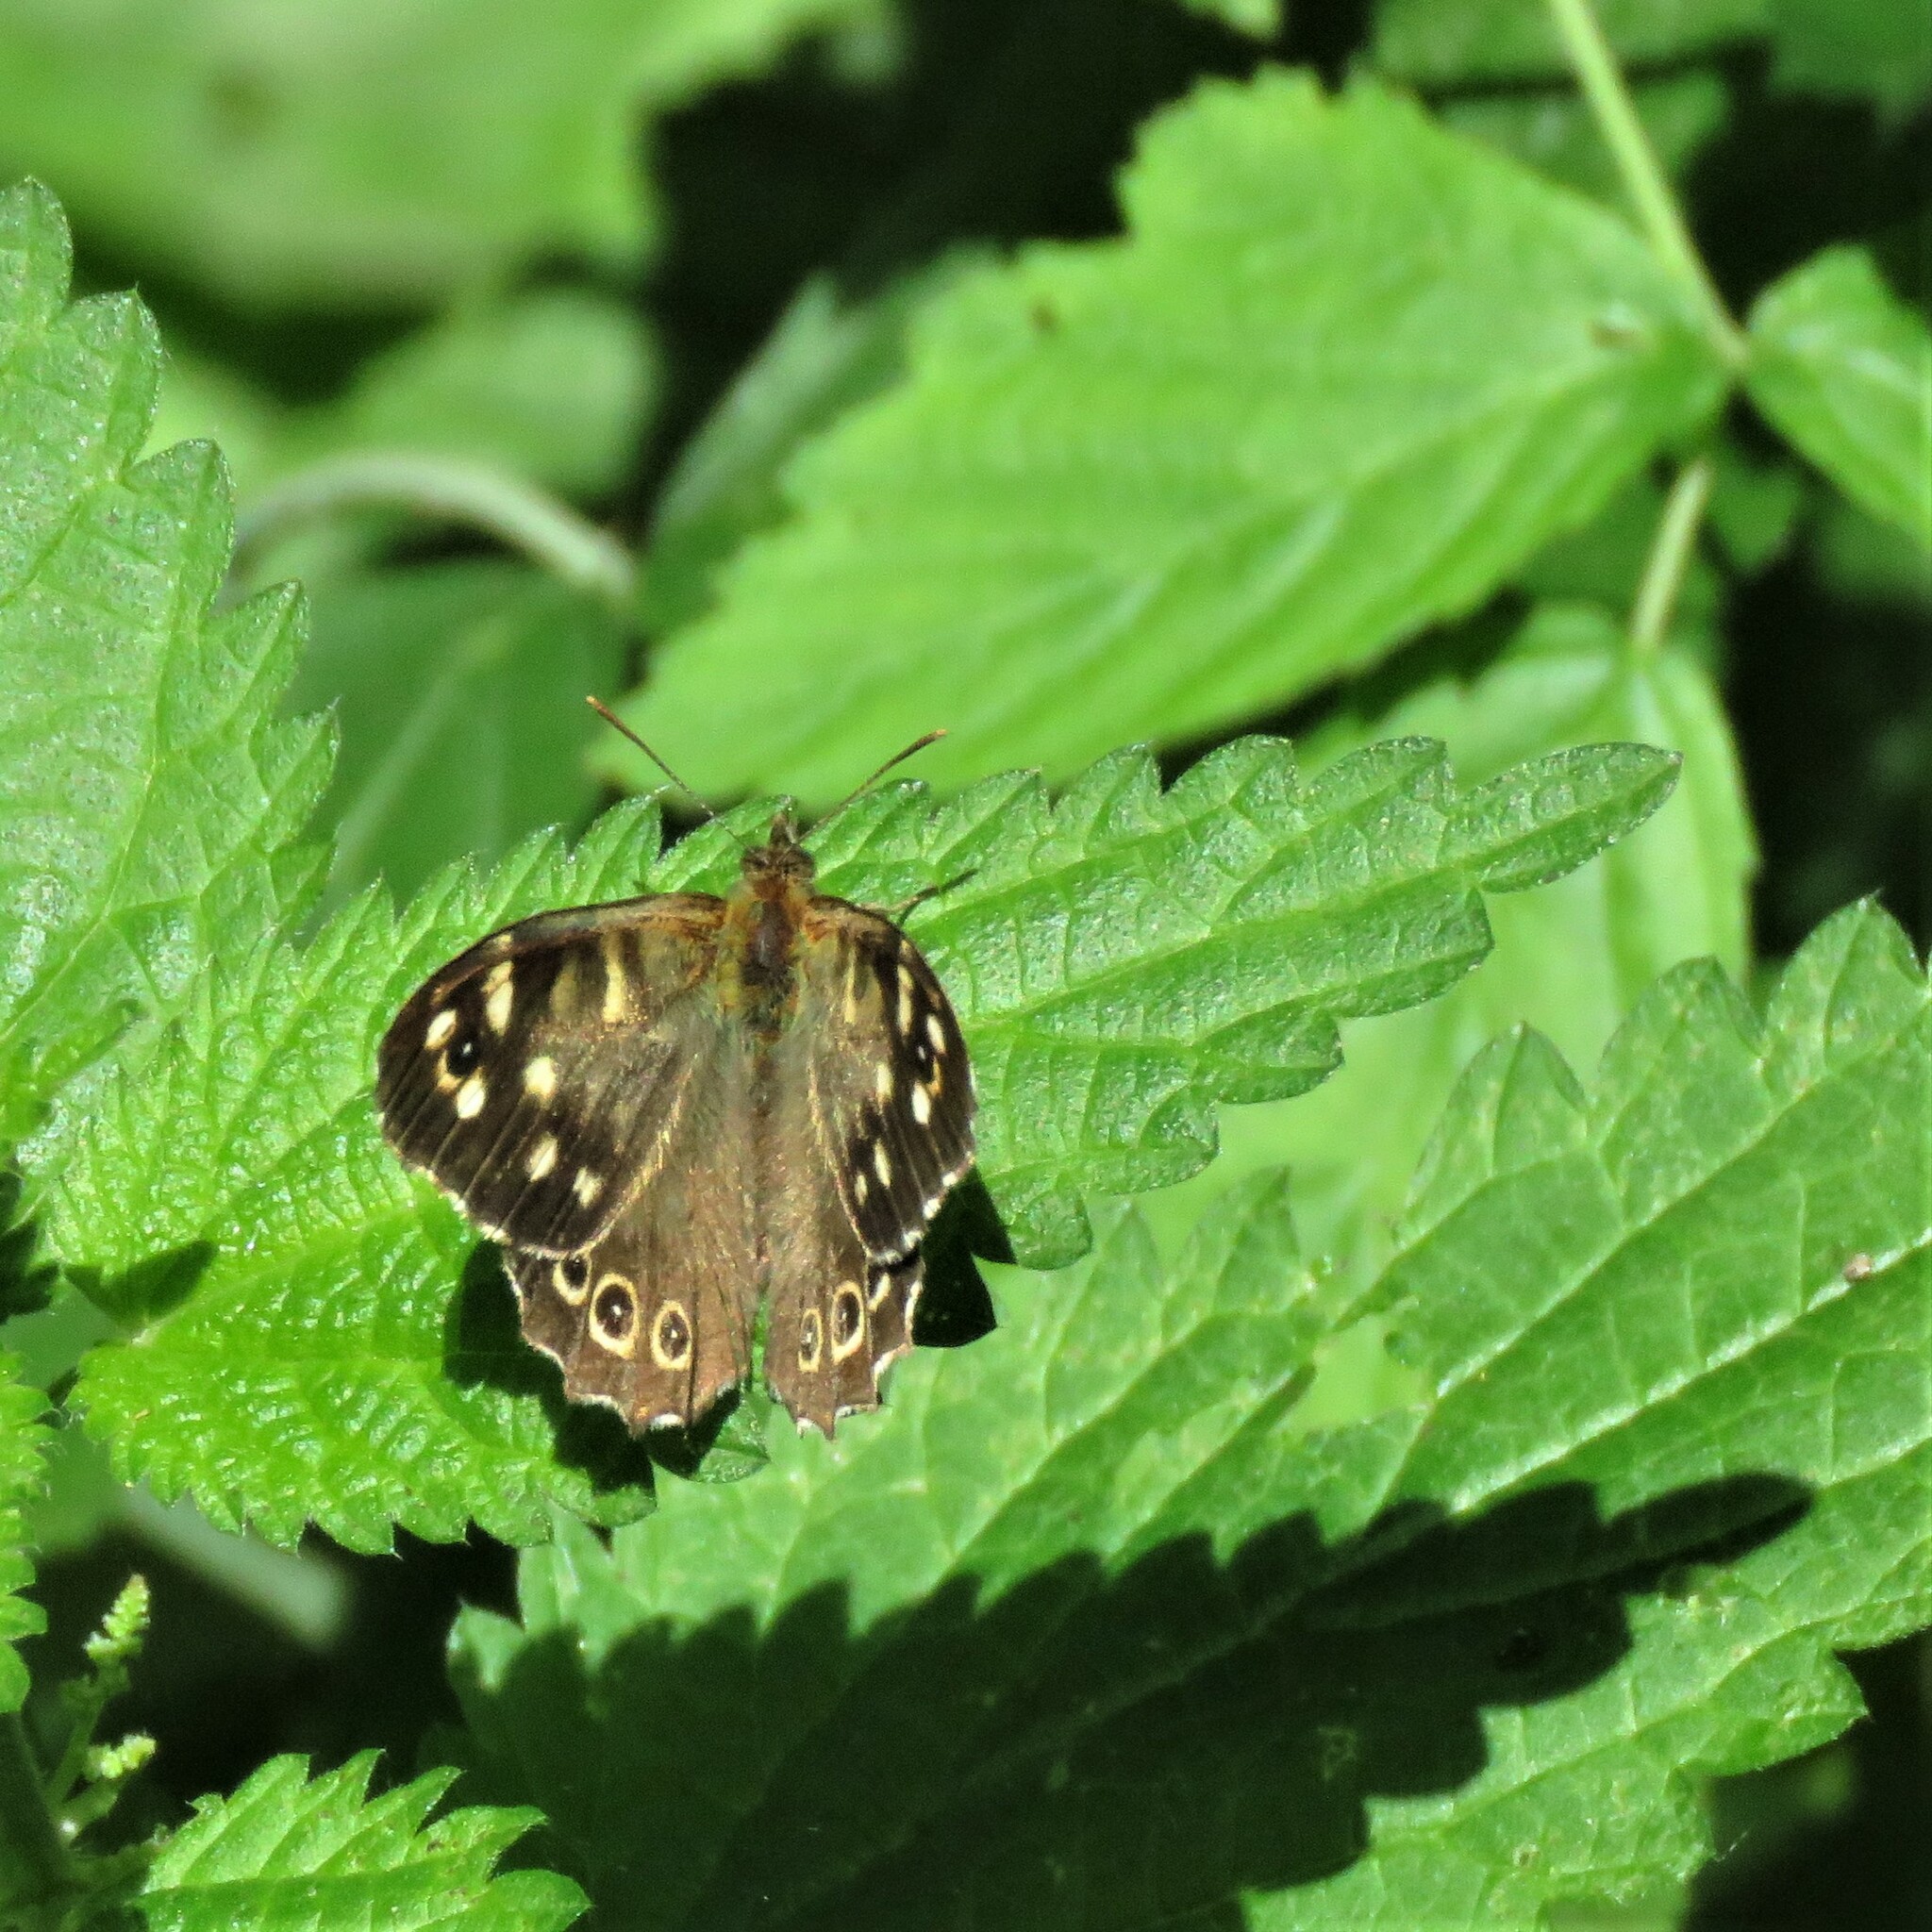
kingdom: Animalia
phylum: Arthropoda
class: Insecta
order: Lepidoptera
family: Nymphalidae
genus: Pararge
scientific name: Pararge aegeria
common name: Speckled wood
